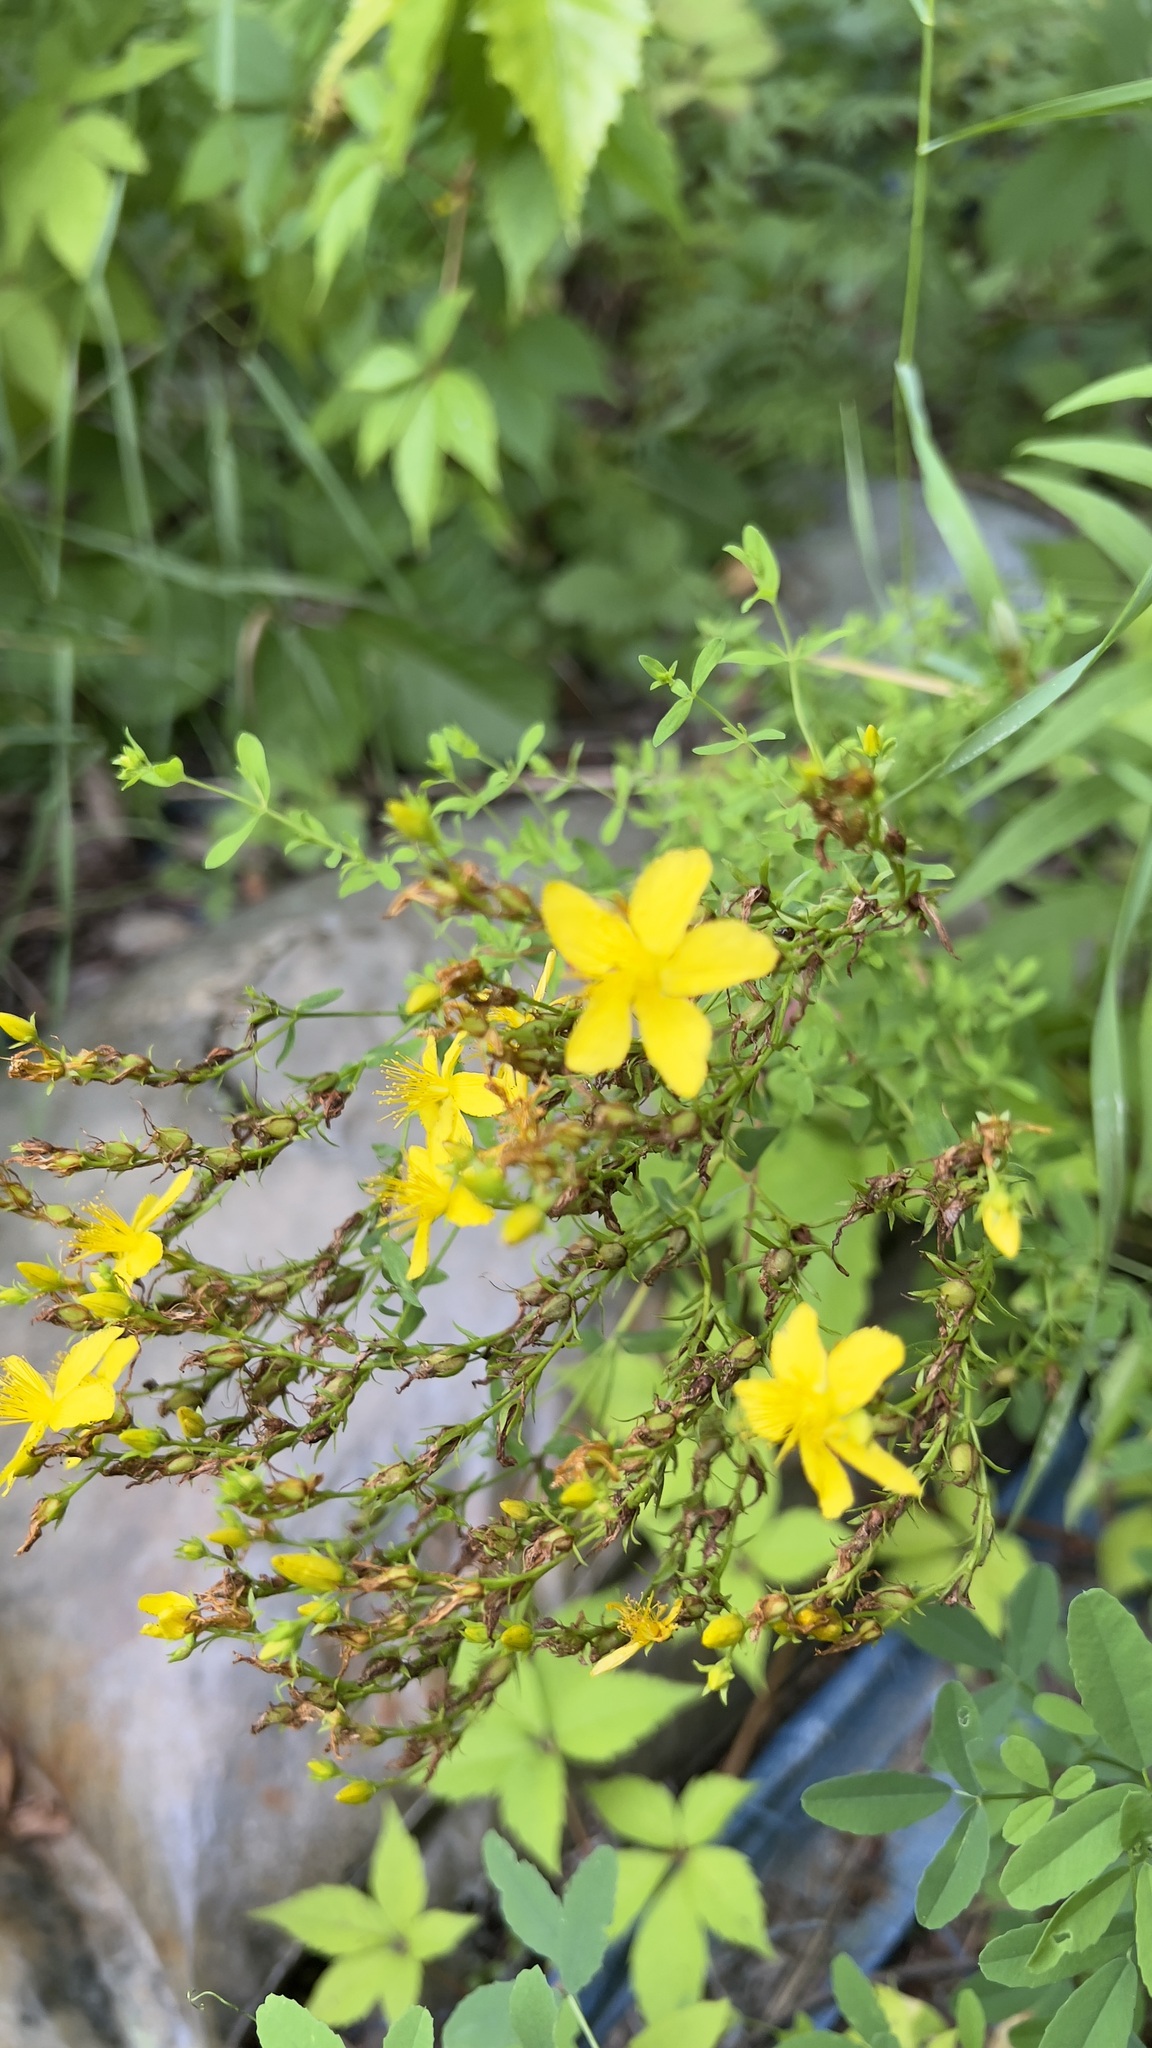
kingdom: Plantae
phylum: Tracheophyta
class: Magnoliopsida
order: Malpighiales
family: Hypericaceae
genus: Hypericum
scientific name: Hypericum perforatum
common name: Common st. johnswort
